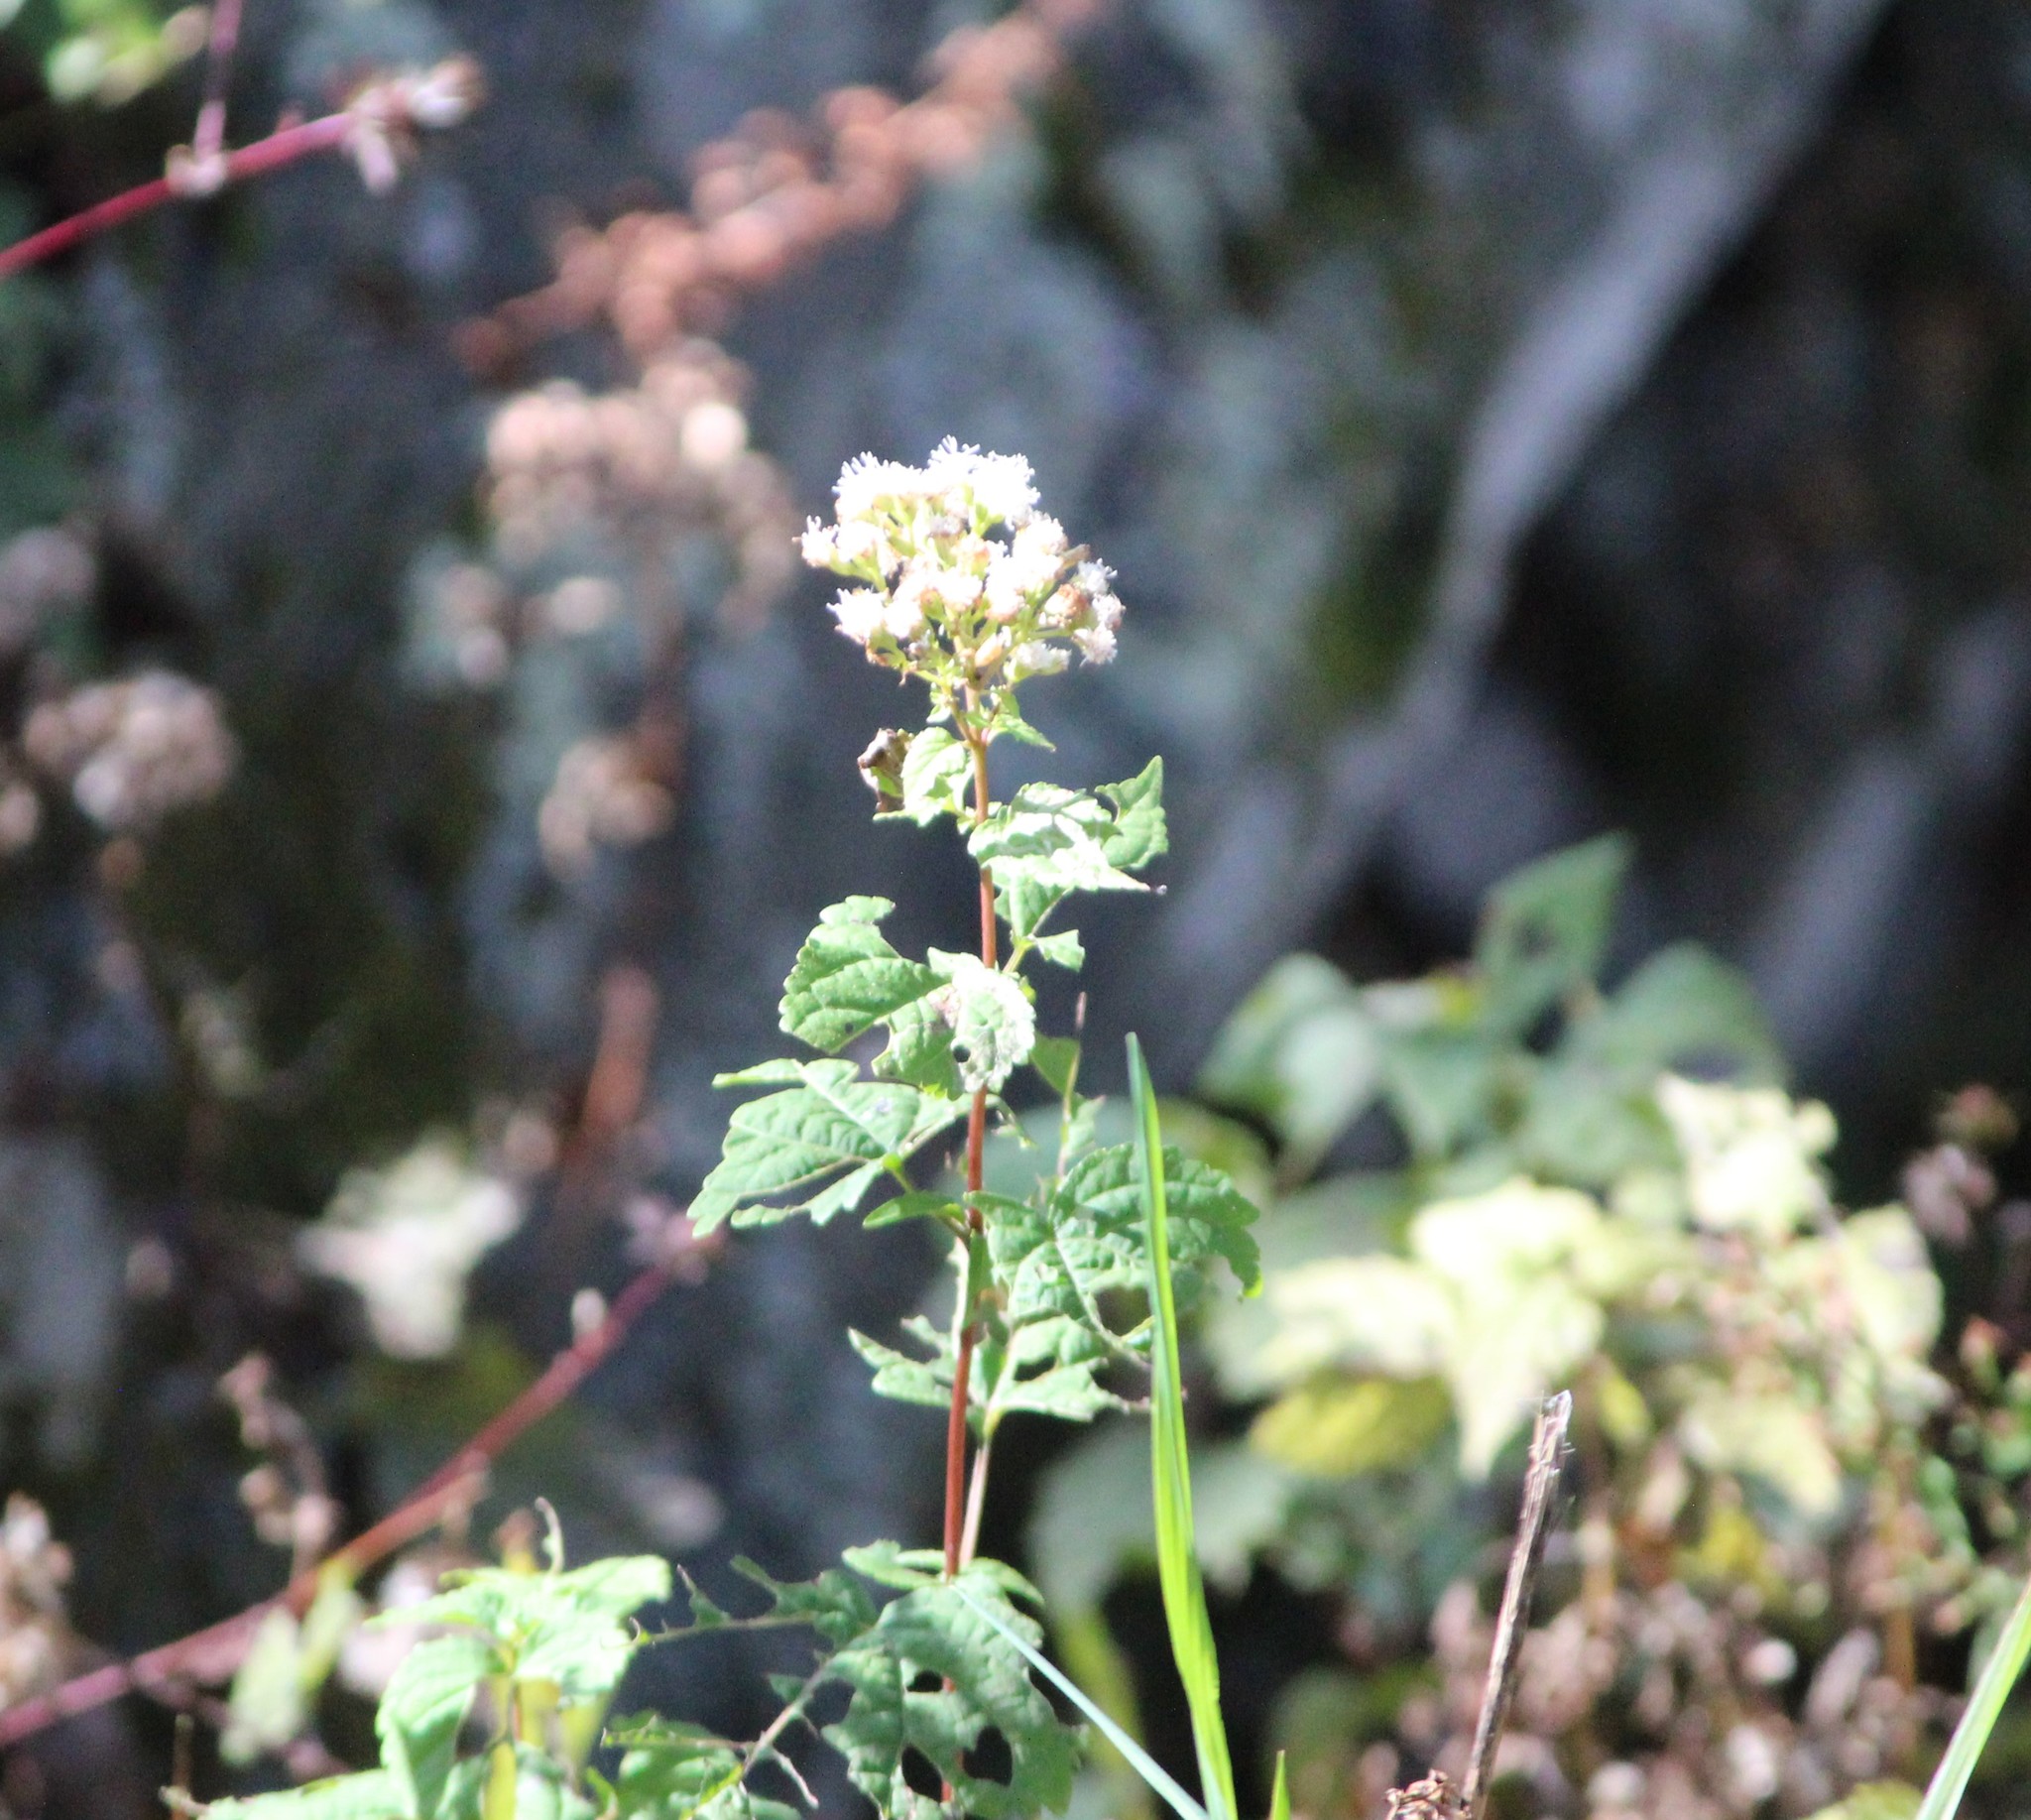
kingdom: Plantae
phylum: Tracheophyta
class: Magnoliopsida
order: Asterales
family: Asteraceae
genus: Ageratina
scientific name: Ageratina altissima
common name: White snakeroot
